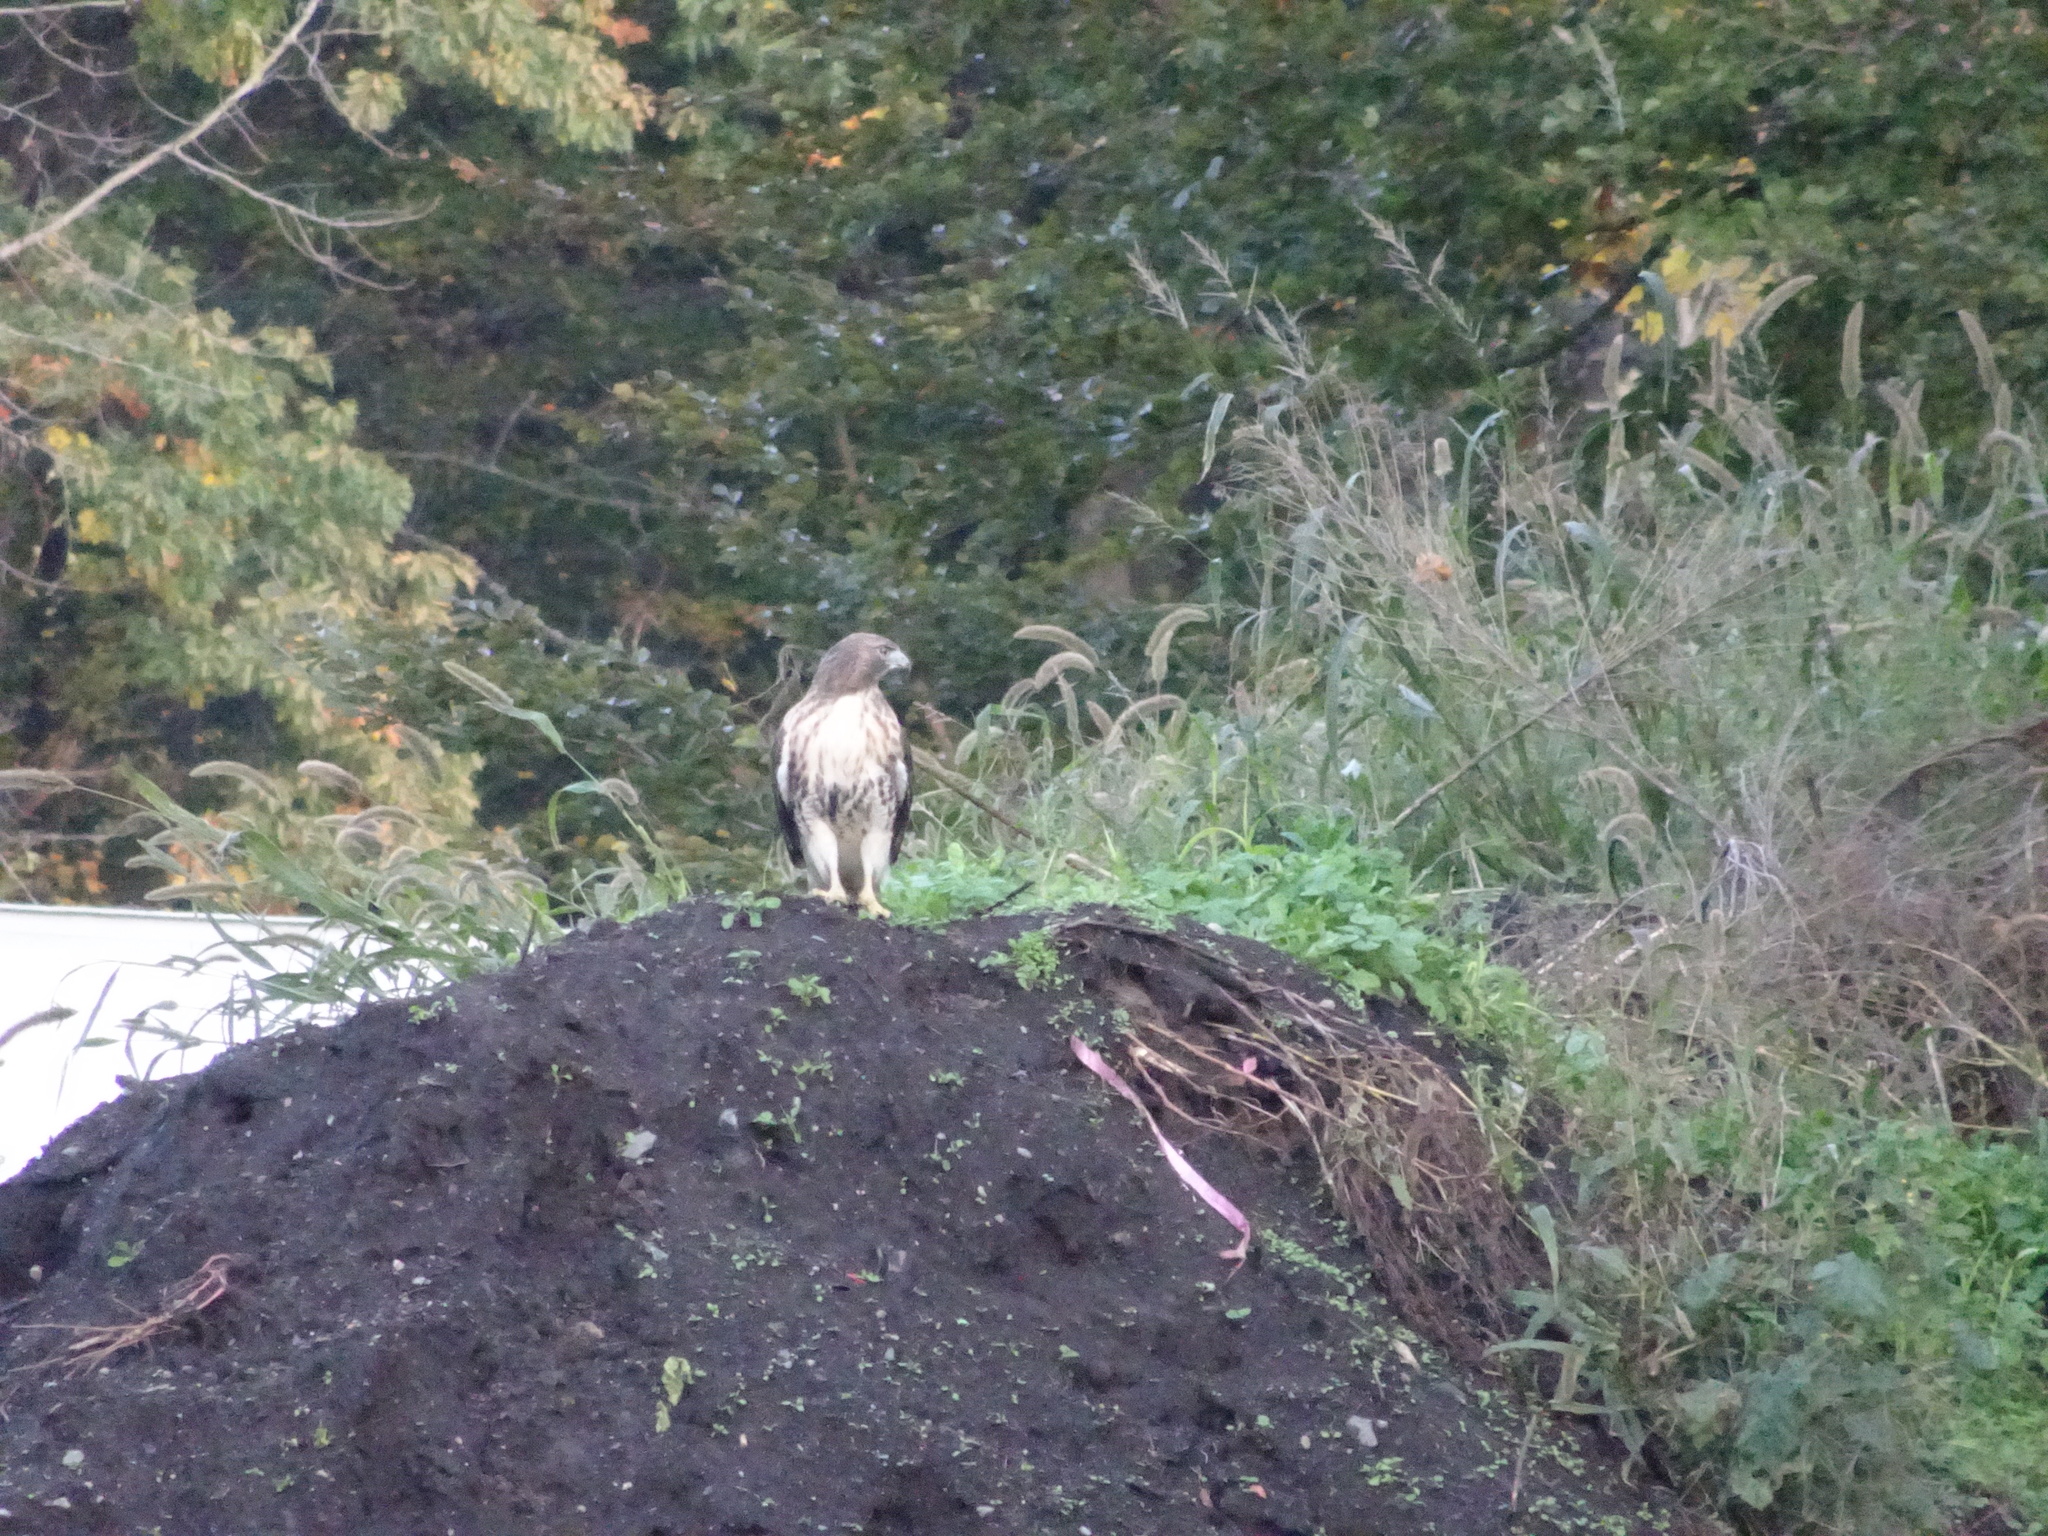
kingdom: Animalia
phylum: Chordata
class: Aves
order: Accipitriformes
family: Accipitridae
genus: Buteo
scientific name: Buteo jamaicensis
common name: Red-tailed hawk
